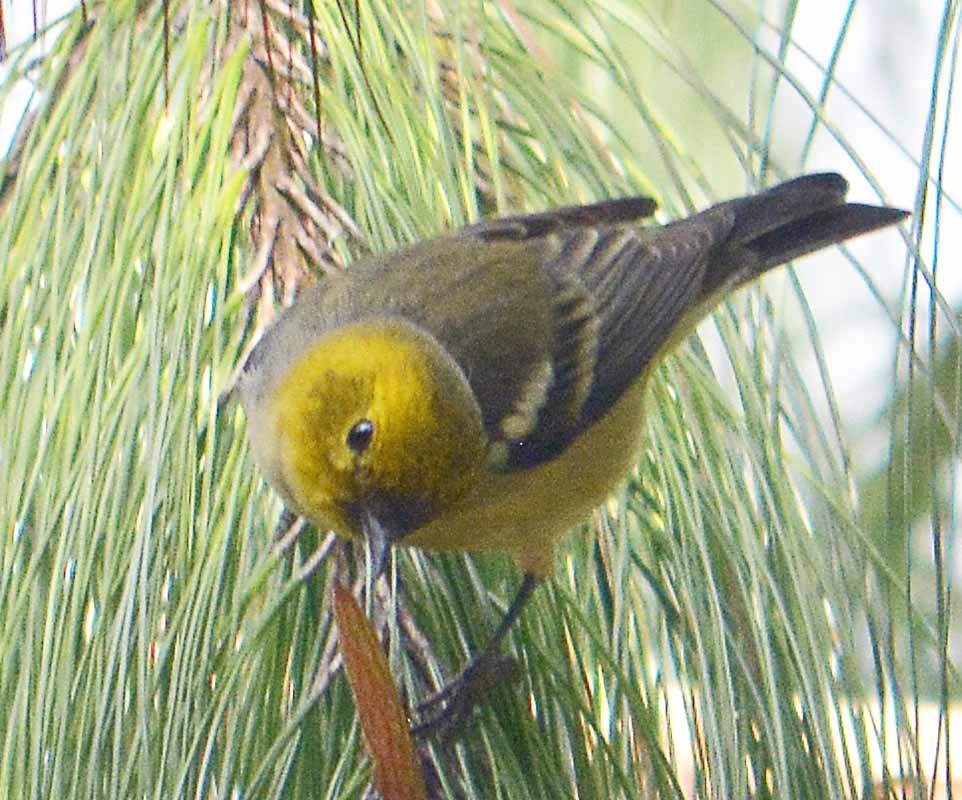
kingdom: Animalia
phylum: Chordata
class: Aves
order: Passeriformes
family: Peucedramidae
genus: Peucedramus
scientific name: Peucedramus taeniatus
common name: Olive warbler
